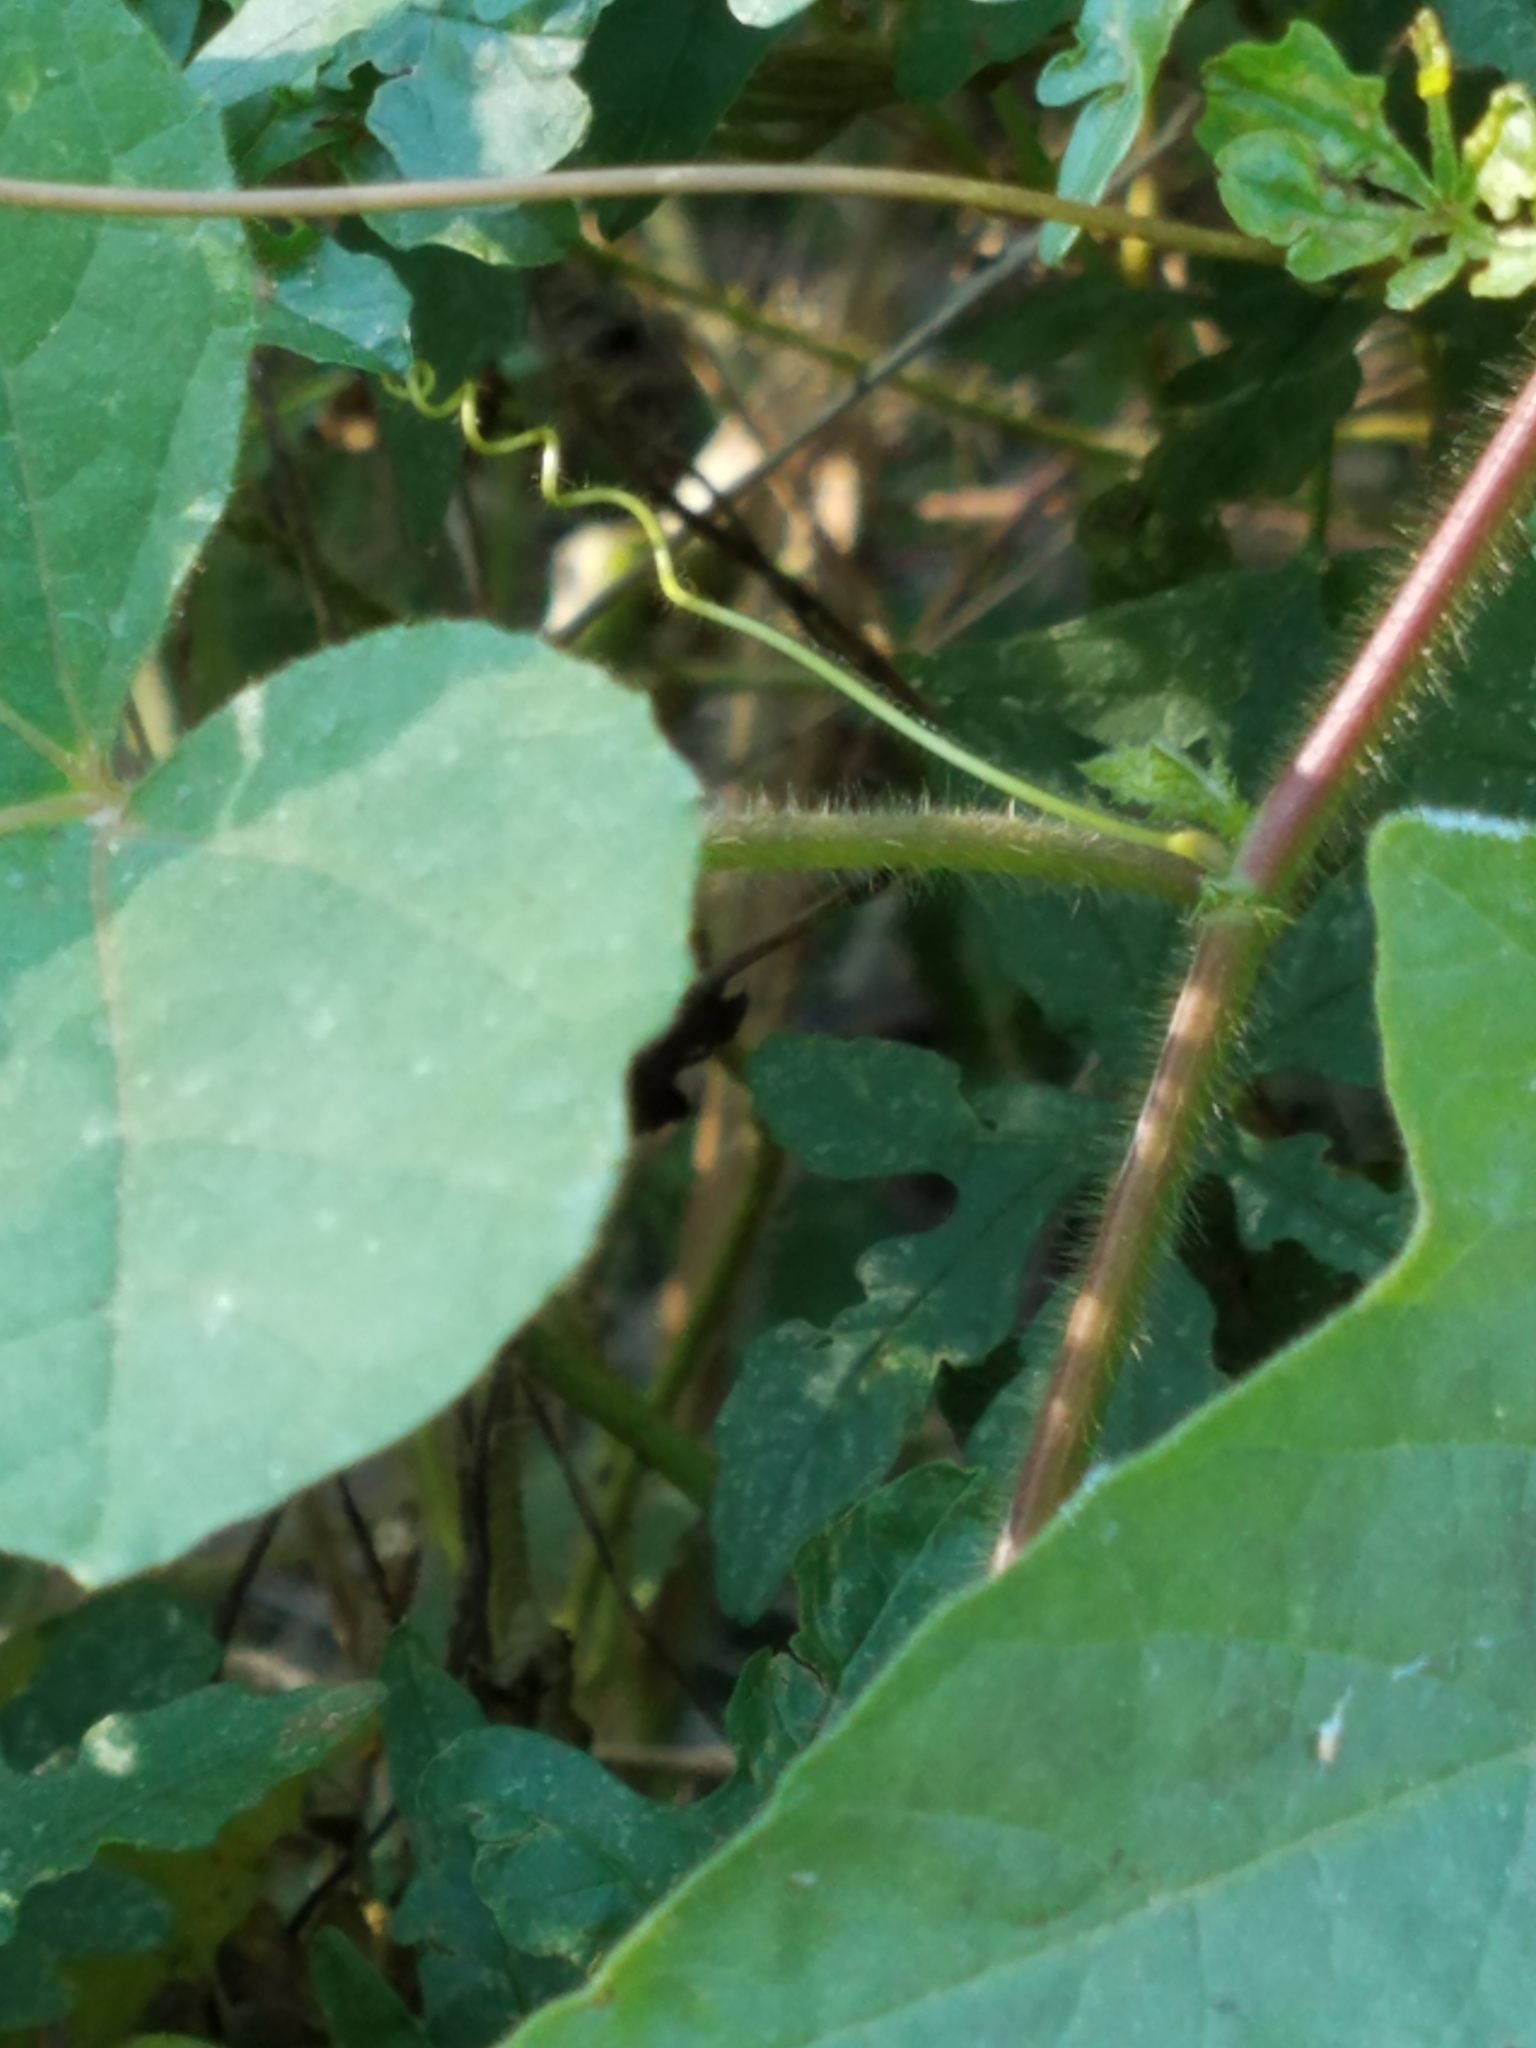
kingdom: Plantae
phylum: Tracheophyta
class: Magnoliopsida
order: Malpighiales
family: Passifloraceae
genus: Passiflora
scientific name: Passiflora
